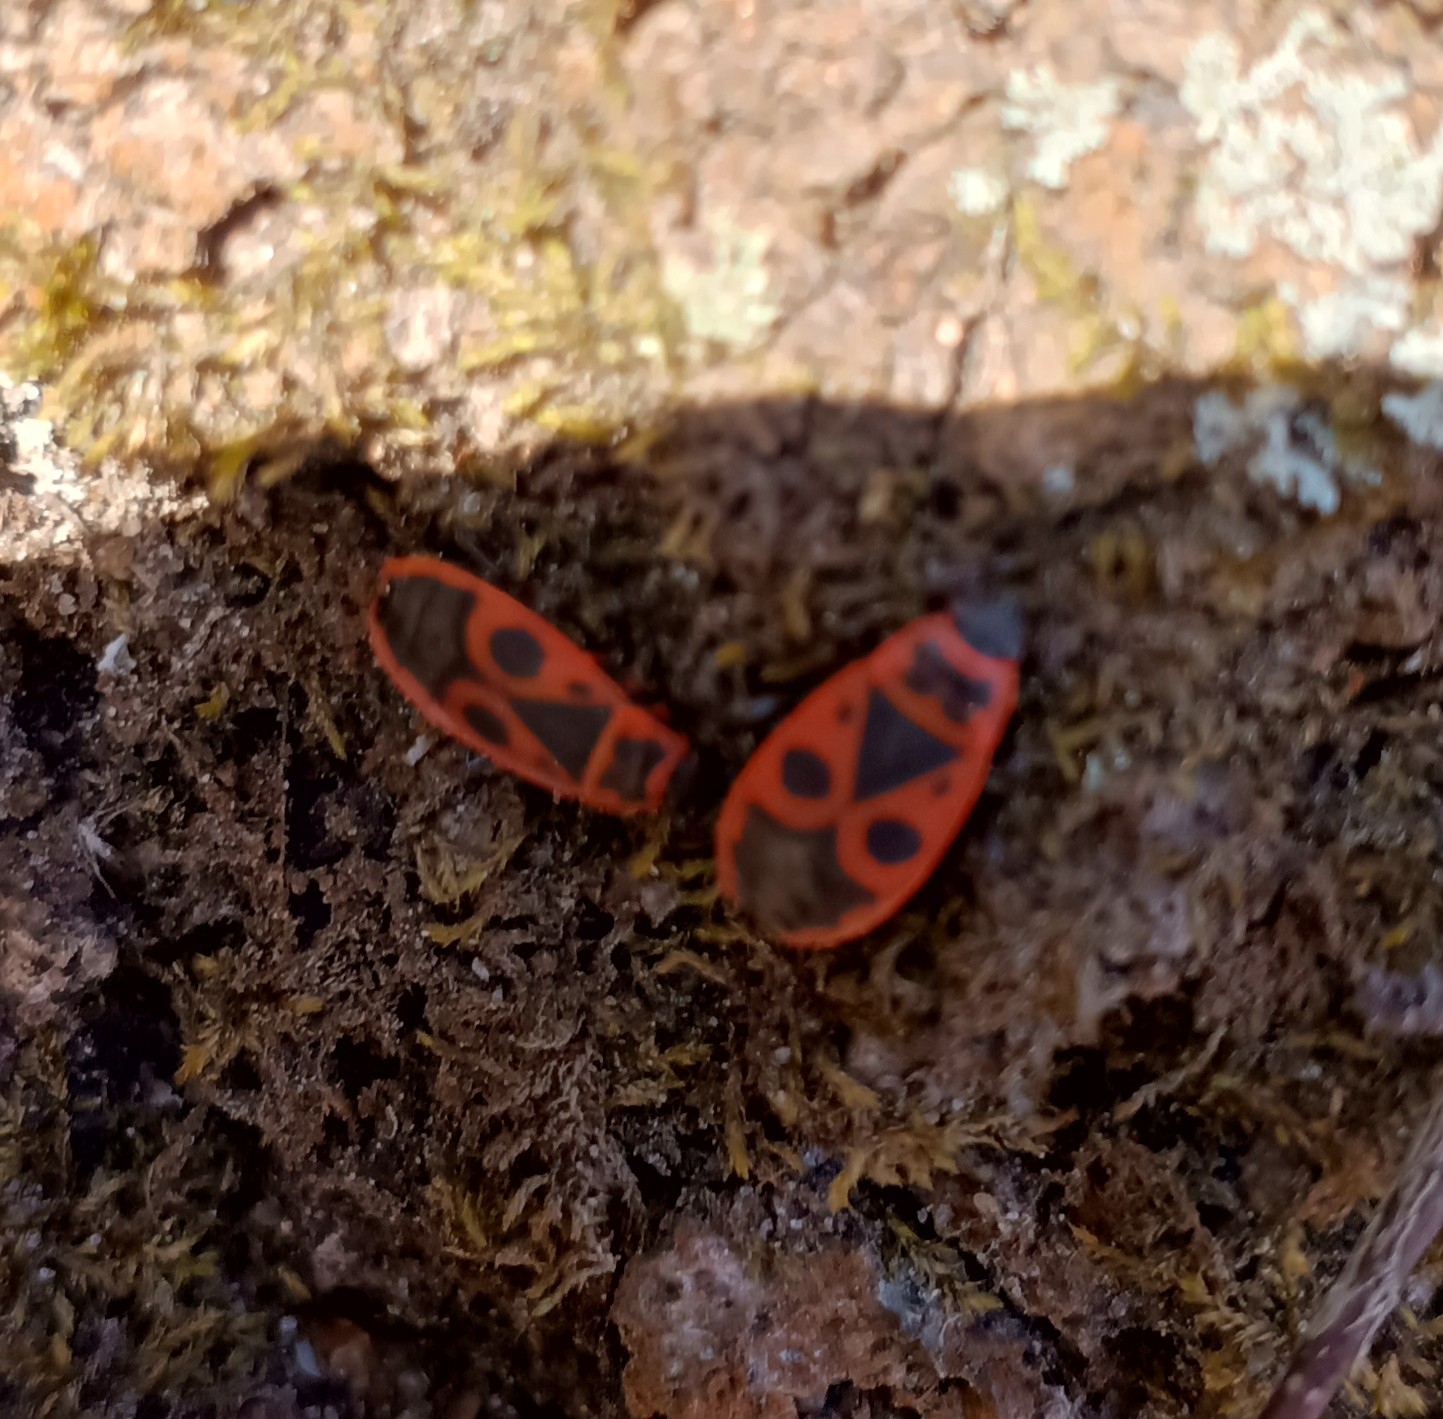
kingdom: Animalia
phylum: Arthropoda
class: Insecta
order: Hemiptera
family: Pyrrhocoridae
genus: Pyrrhocoris
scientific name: Pyrrhocoris apterus
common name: Firebug
